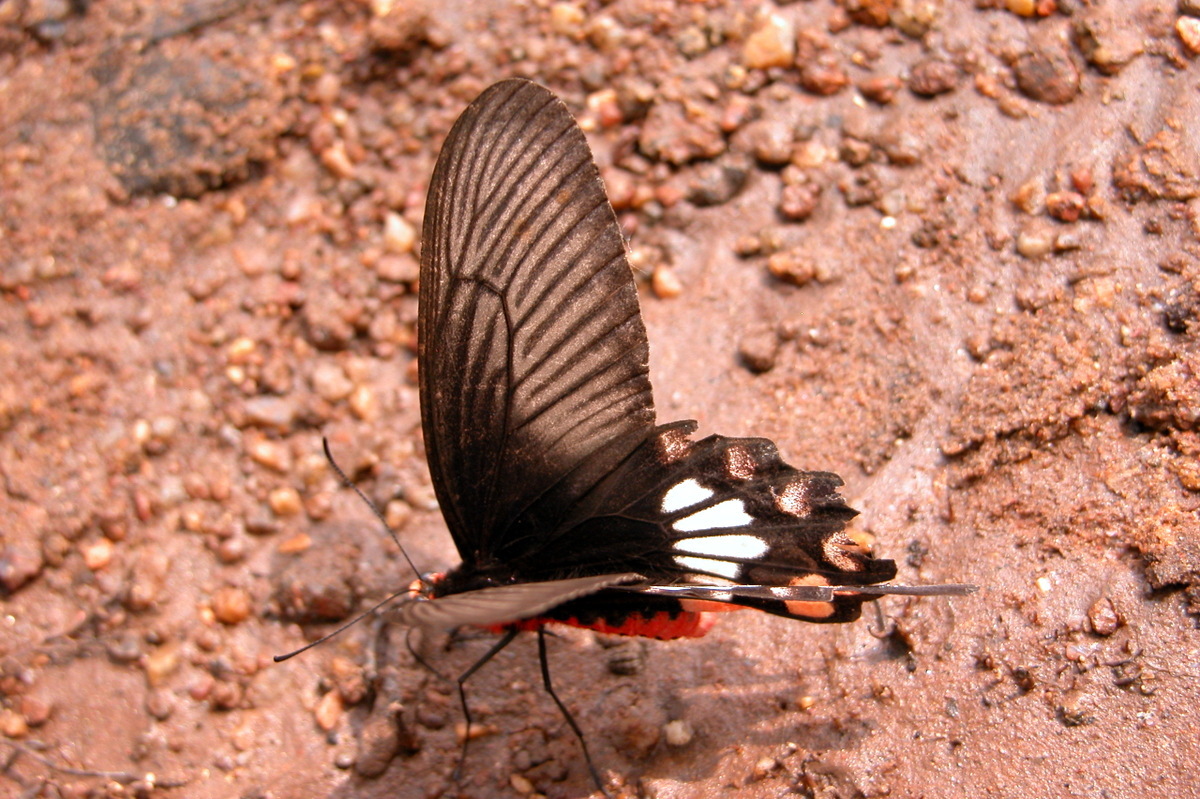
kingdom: Animalia
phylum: Arthropoda
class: Insecta
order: Lepidoptera
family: Papilionidae
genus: Pachliopta
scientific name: Pachliopta aristolochiae
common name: Common rose
